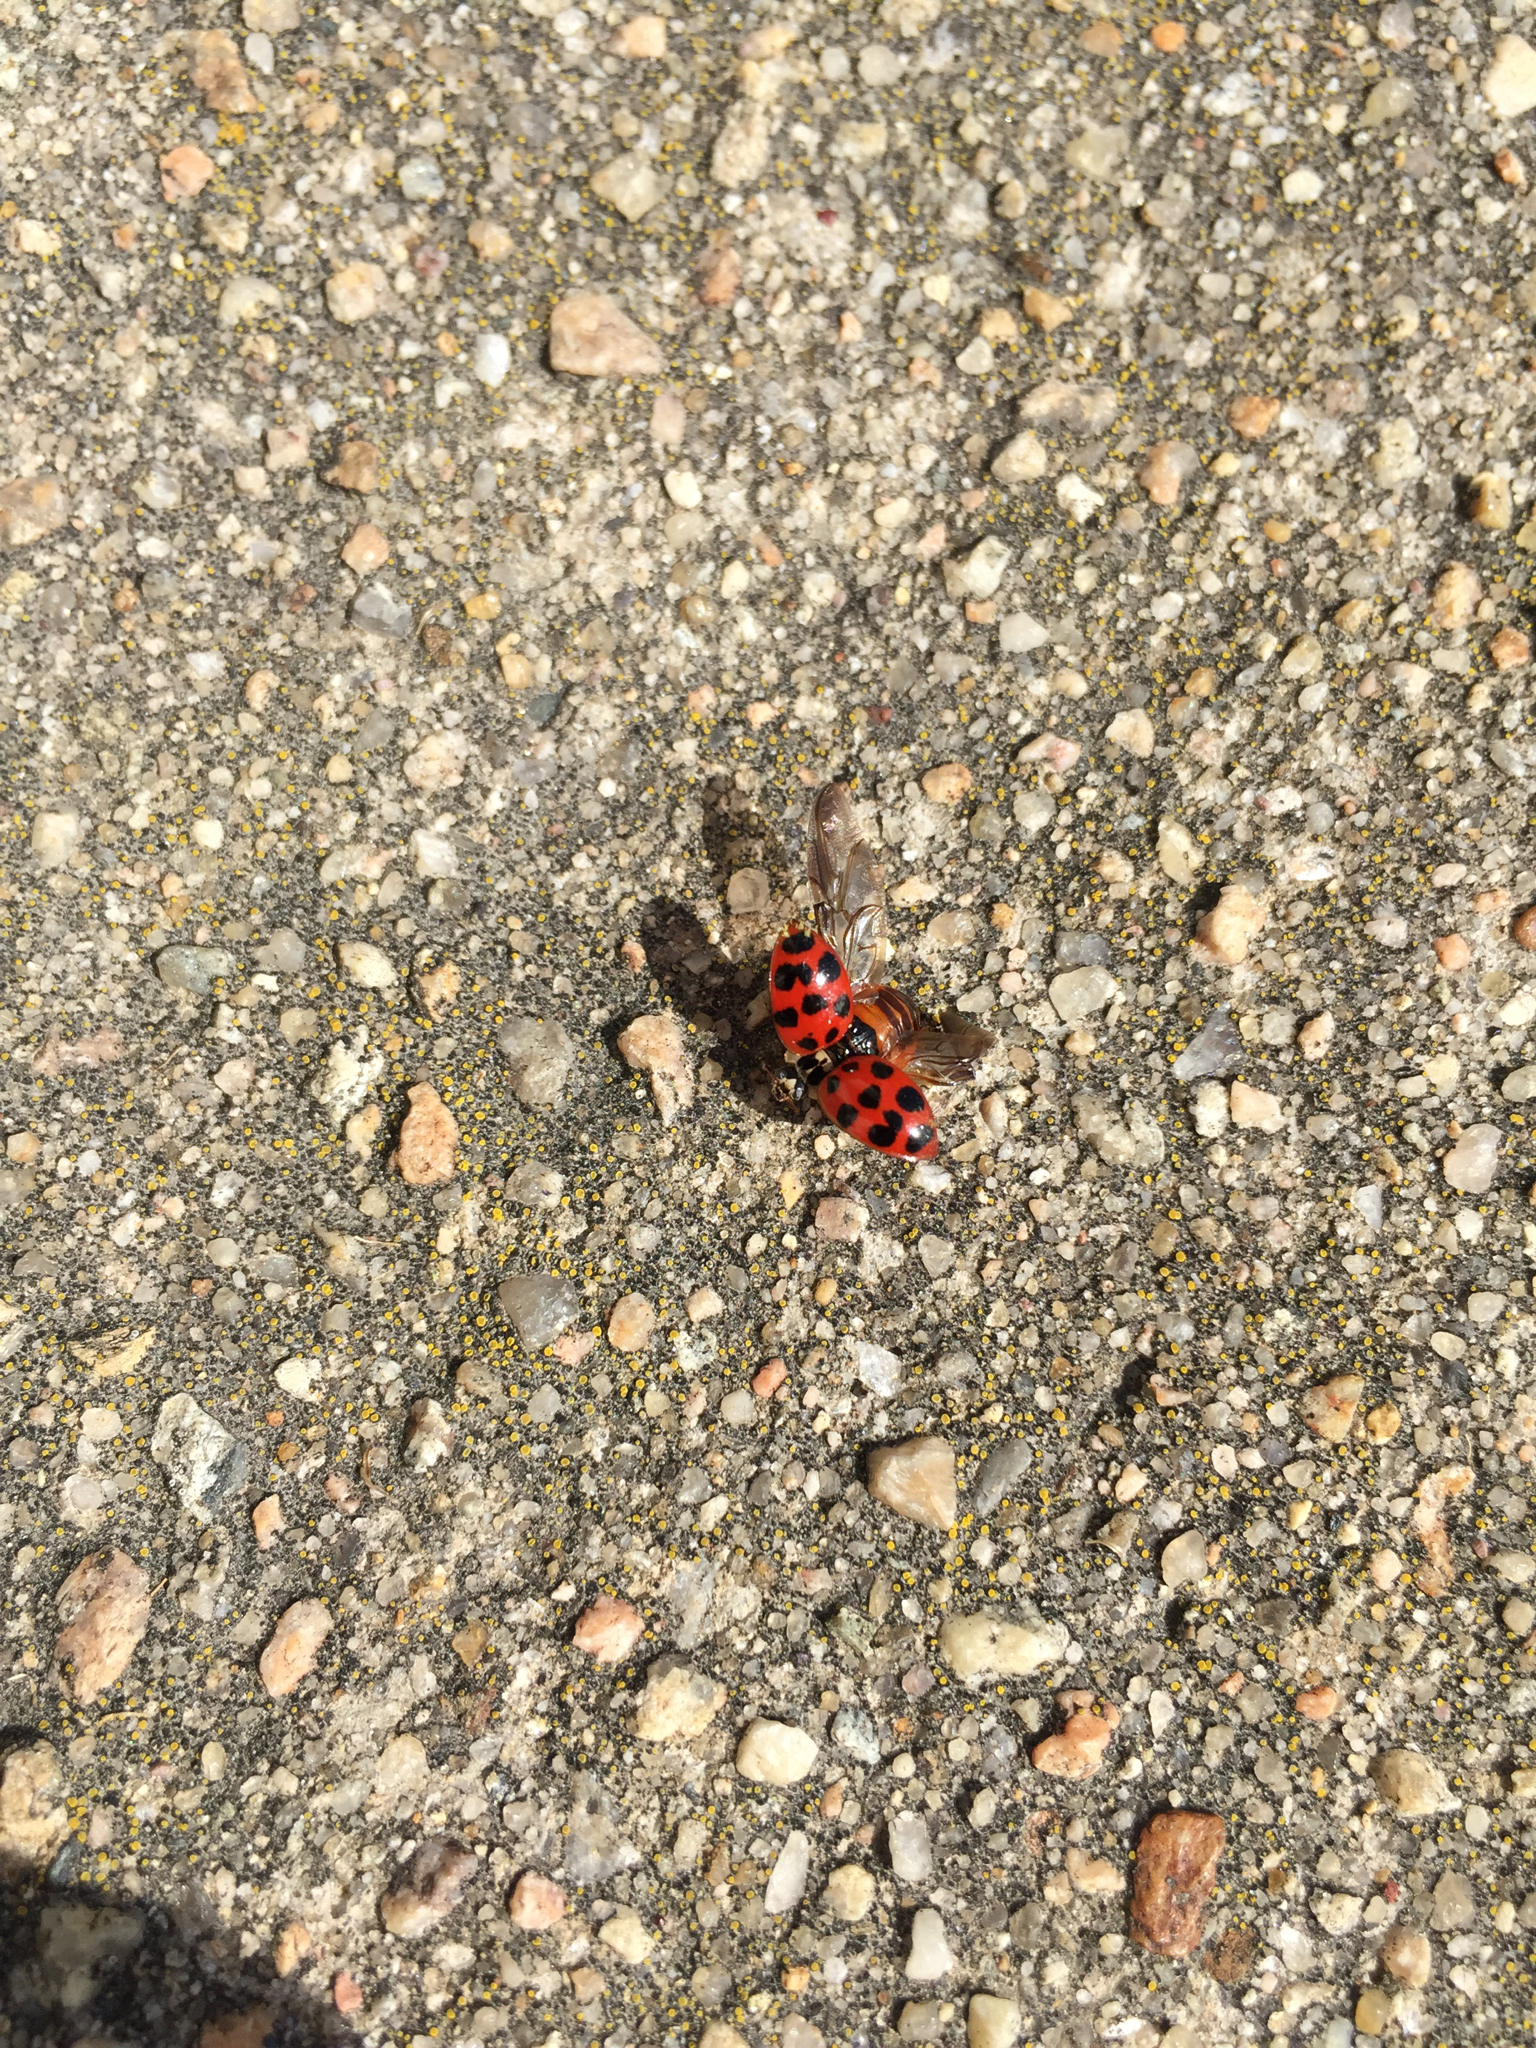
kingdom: Animalia
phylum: Arthropoda
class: Insecta
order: Coleoptera
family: Coccinellidae
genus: Harmonia
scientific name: Harmonia axyridis
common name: Harlequin ladybird
